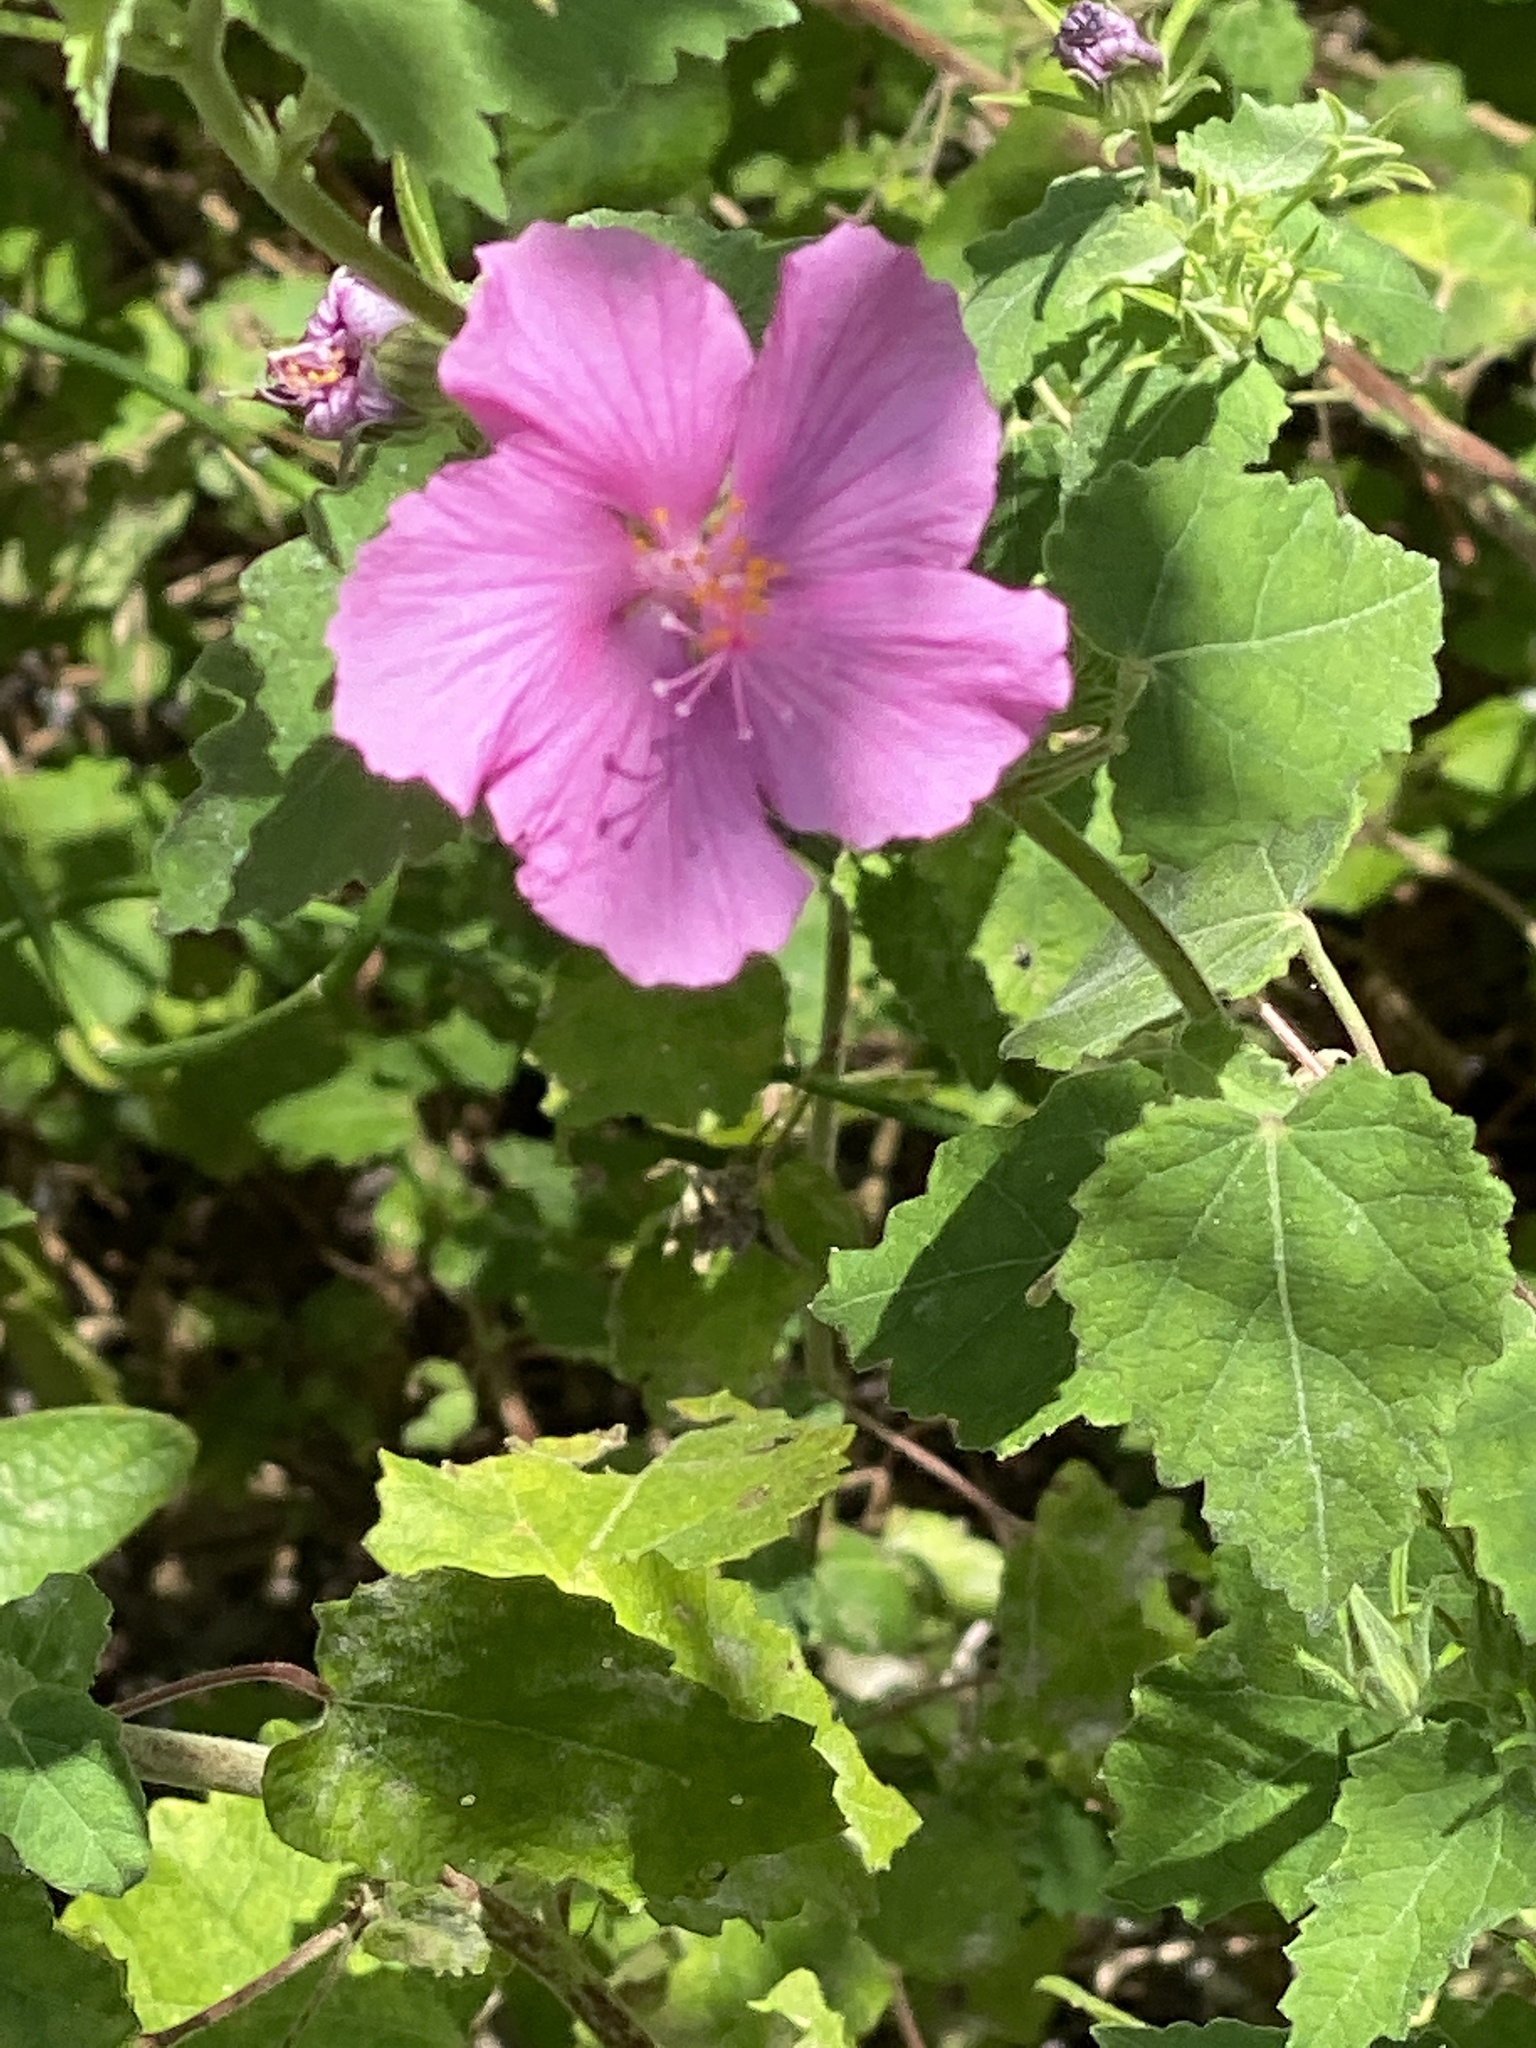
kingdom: Plantae
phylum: Tracheophyta
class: Magnoliopsida
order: Malvales
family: Malvaceae
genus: Pavonia
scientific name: Pavonia lasiopetala
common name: Texas swamp-mallow
